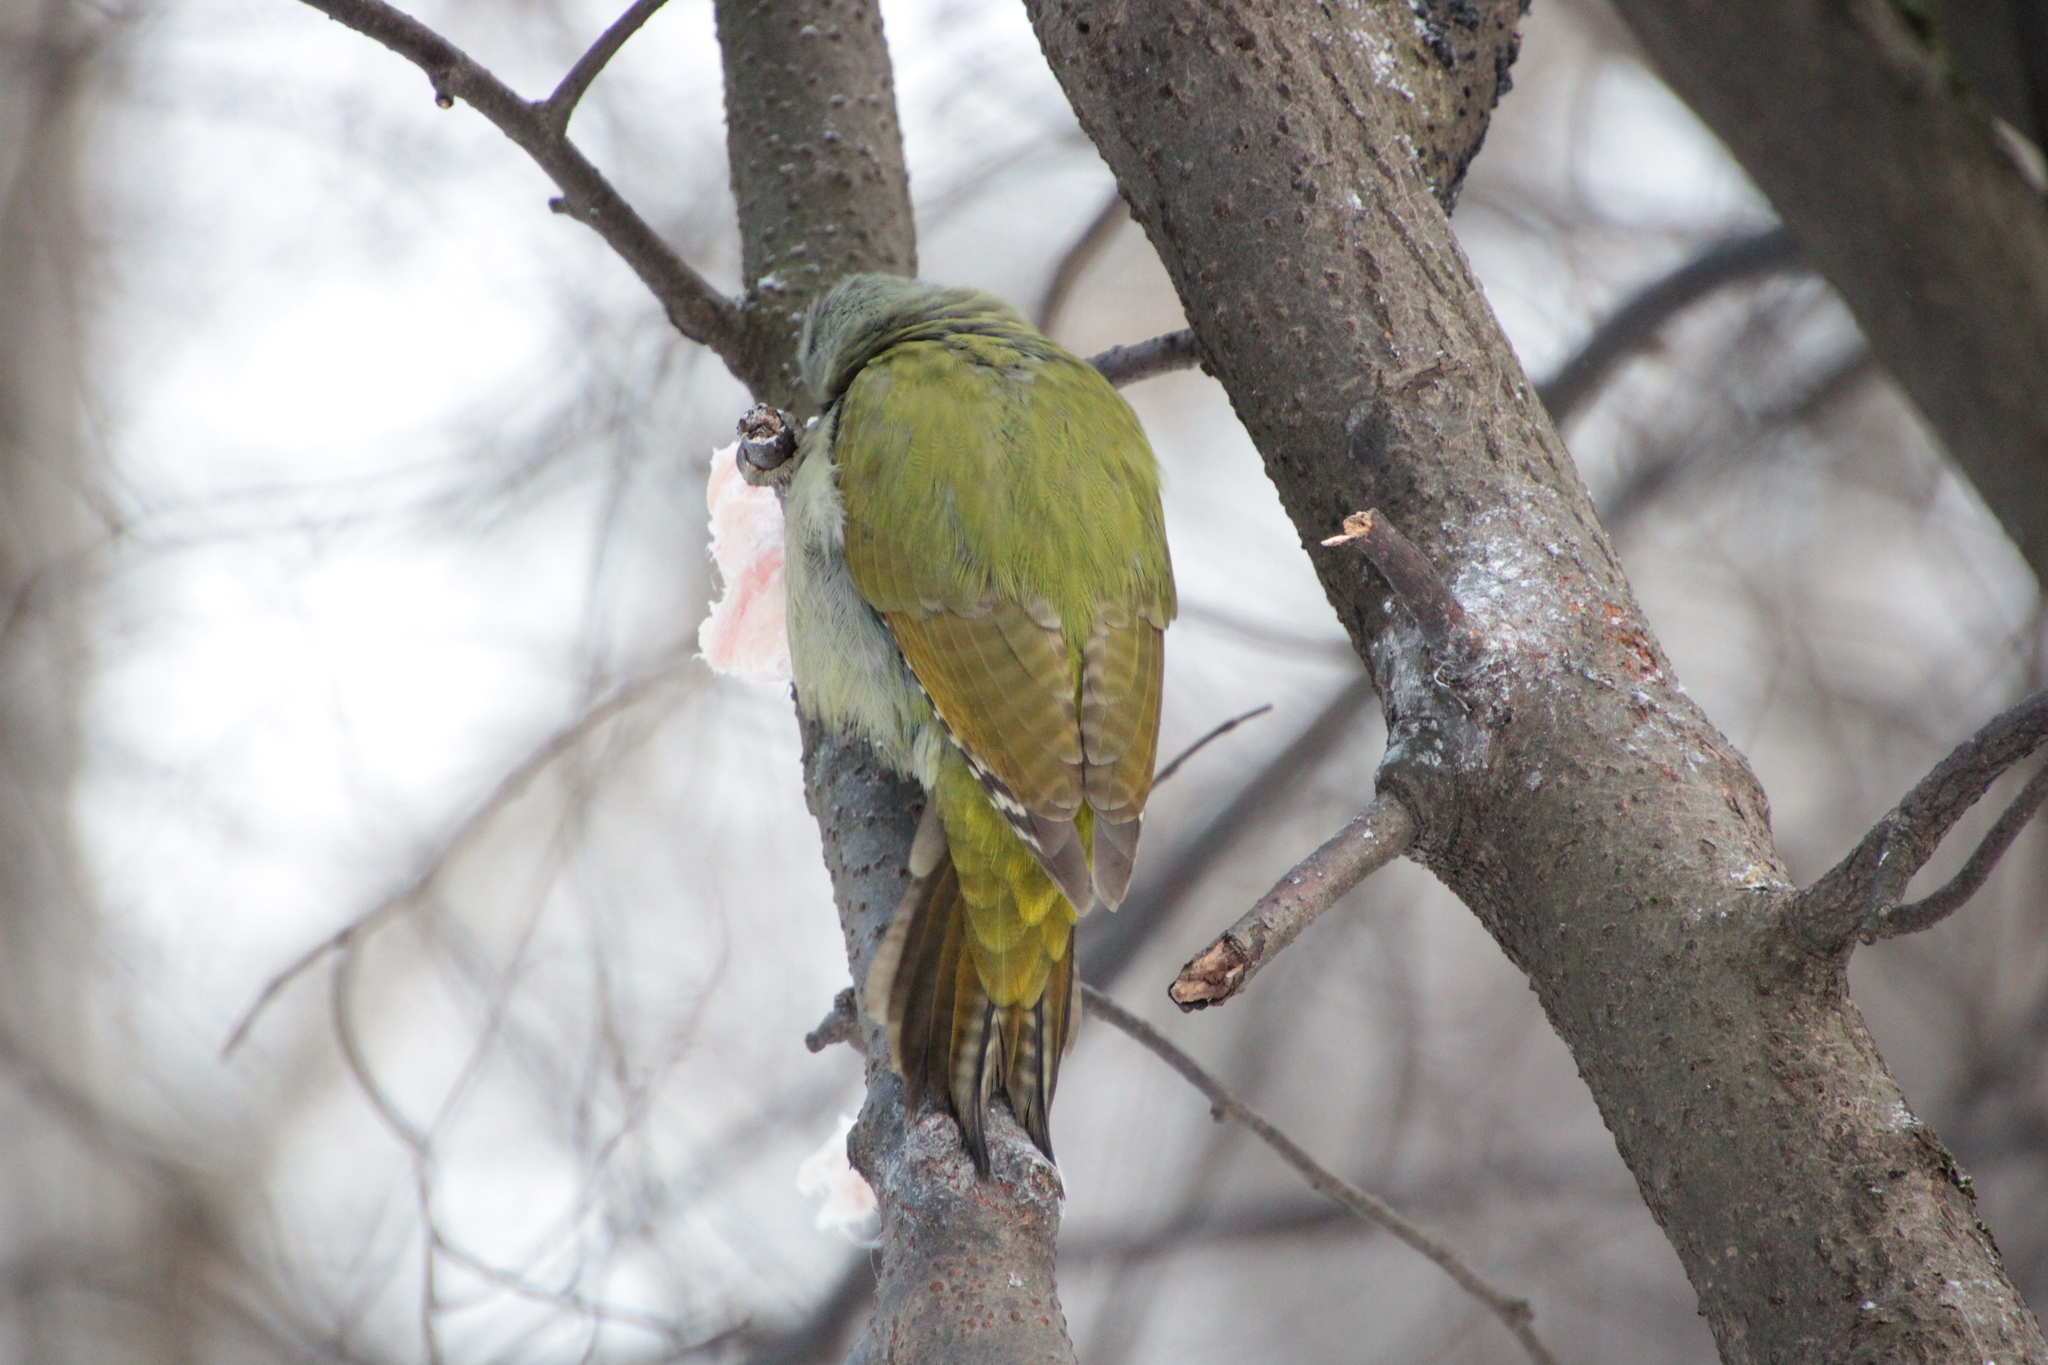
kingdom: Animalia
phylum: Chordata
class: Aves
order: Piciformes
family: Picidae
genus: Picus
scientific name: Picus canus
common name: Grey-headed woodpecker
